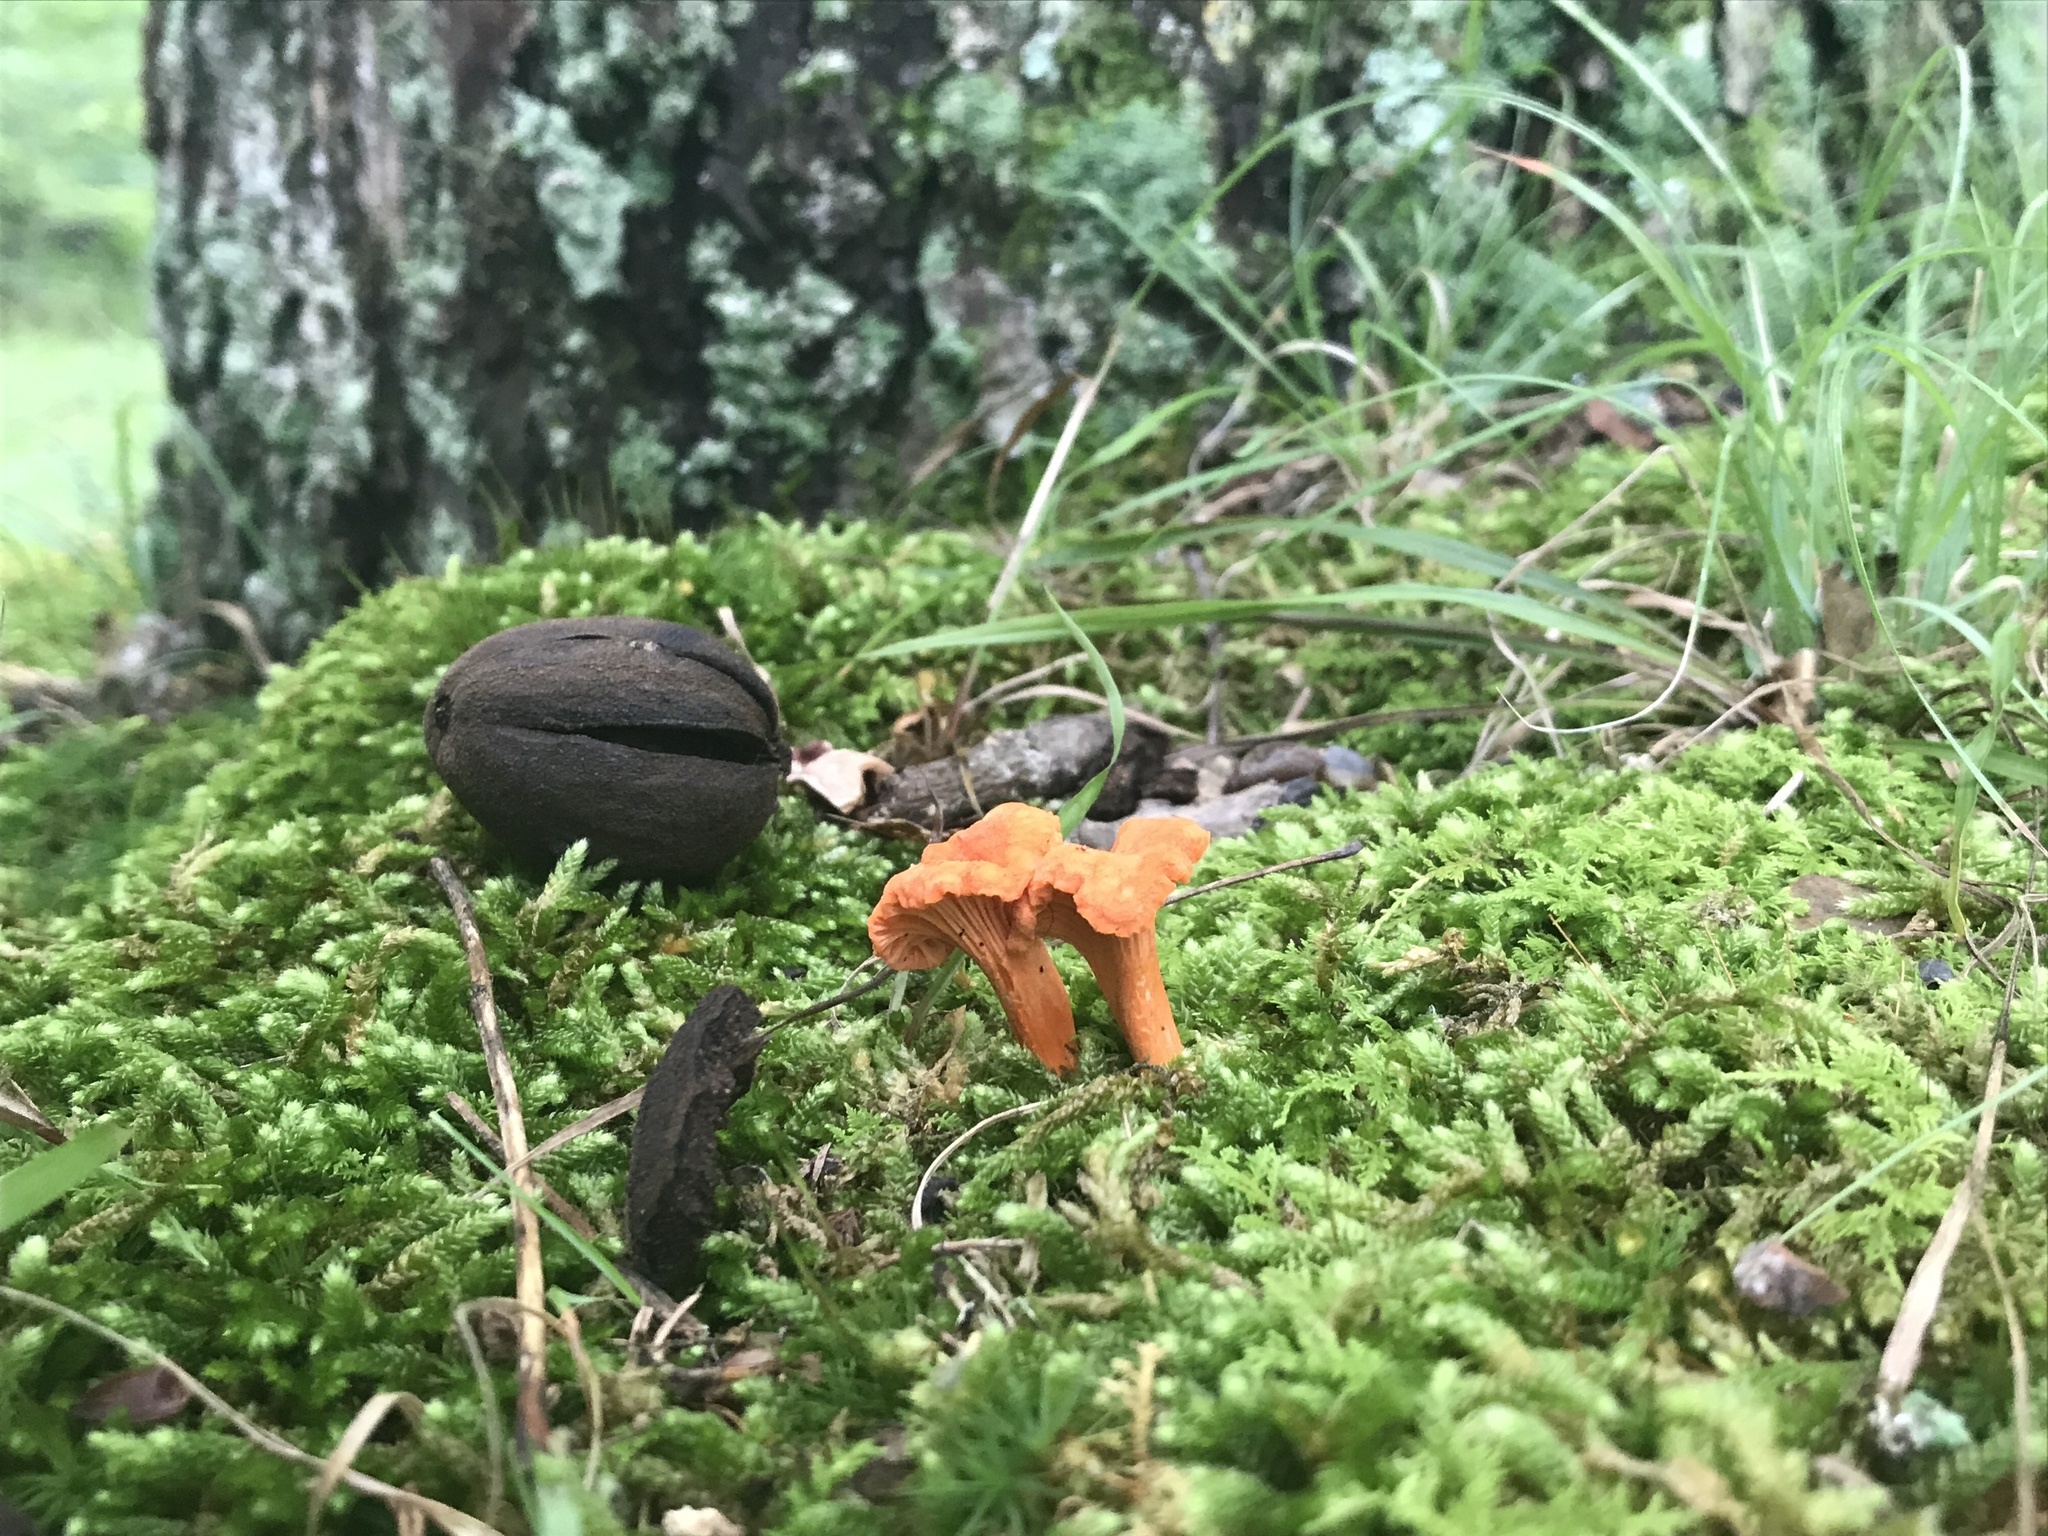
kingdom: Fungi
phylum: Basidiomycota
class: Agaricomycetes
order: Cantharellales
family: Hydnaceae
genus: Cantharellus
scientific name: Cantharellus corallinus
